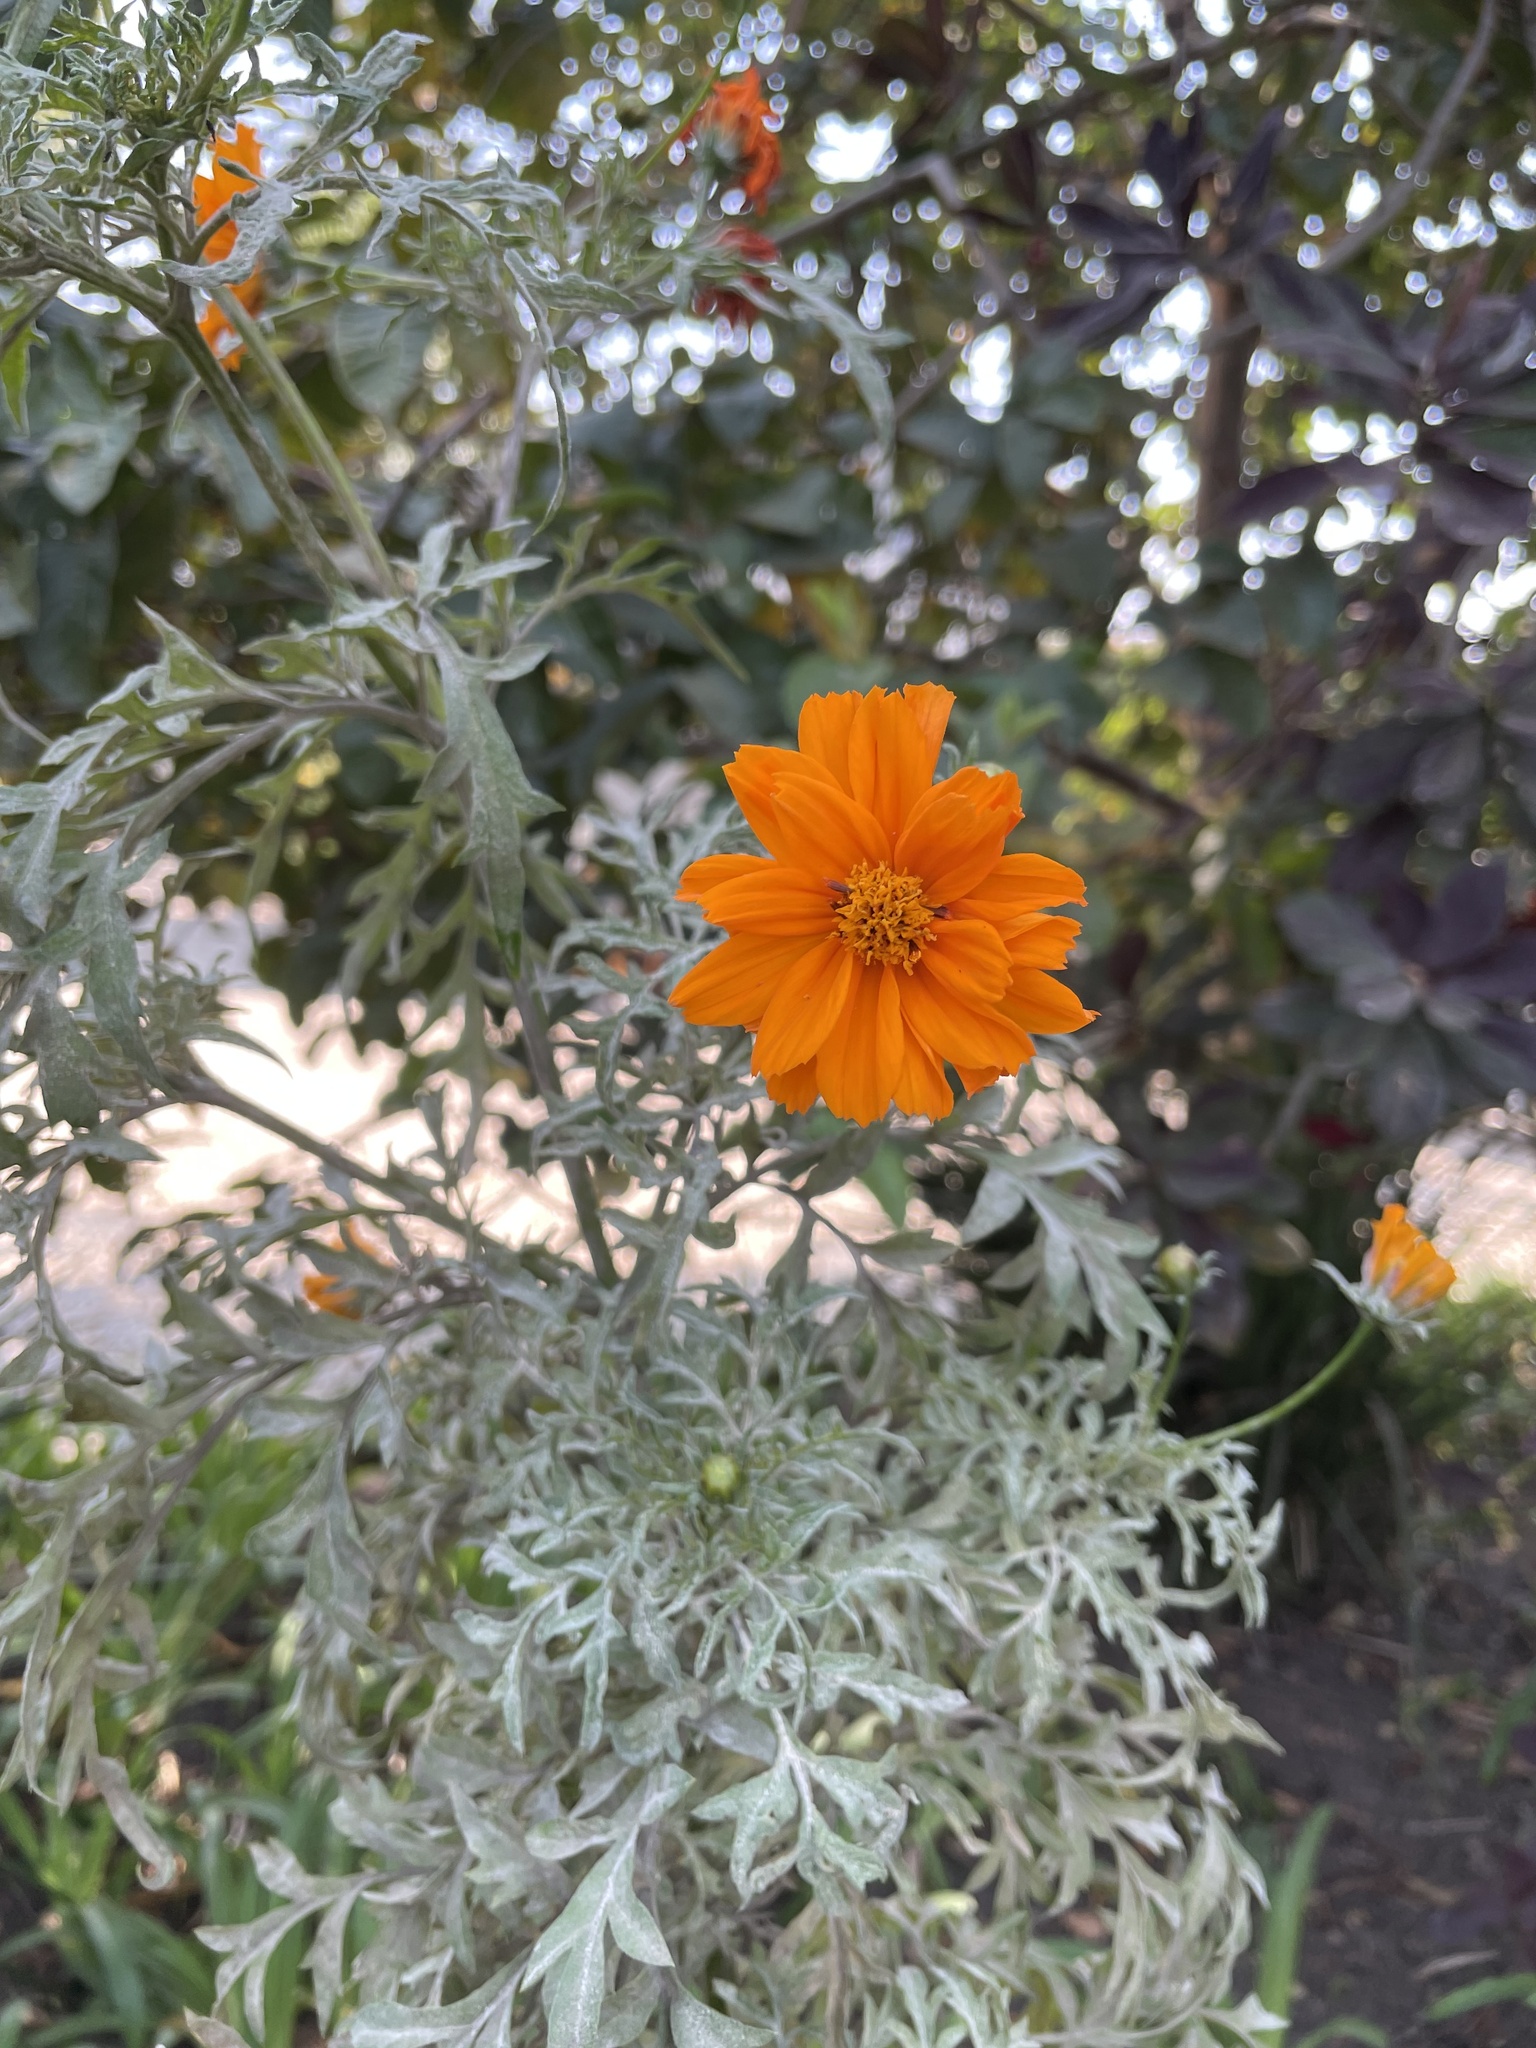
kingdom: Plantae
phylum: Tracheophyta
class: Magnoliopsida
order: Asterales
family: Asteraceae
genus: Cosmos
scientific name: Cosmos sulphureus
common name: Sulphur cosmos
